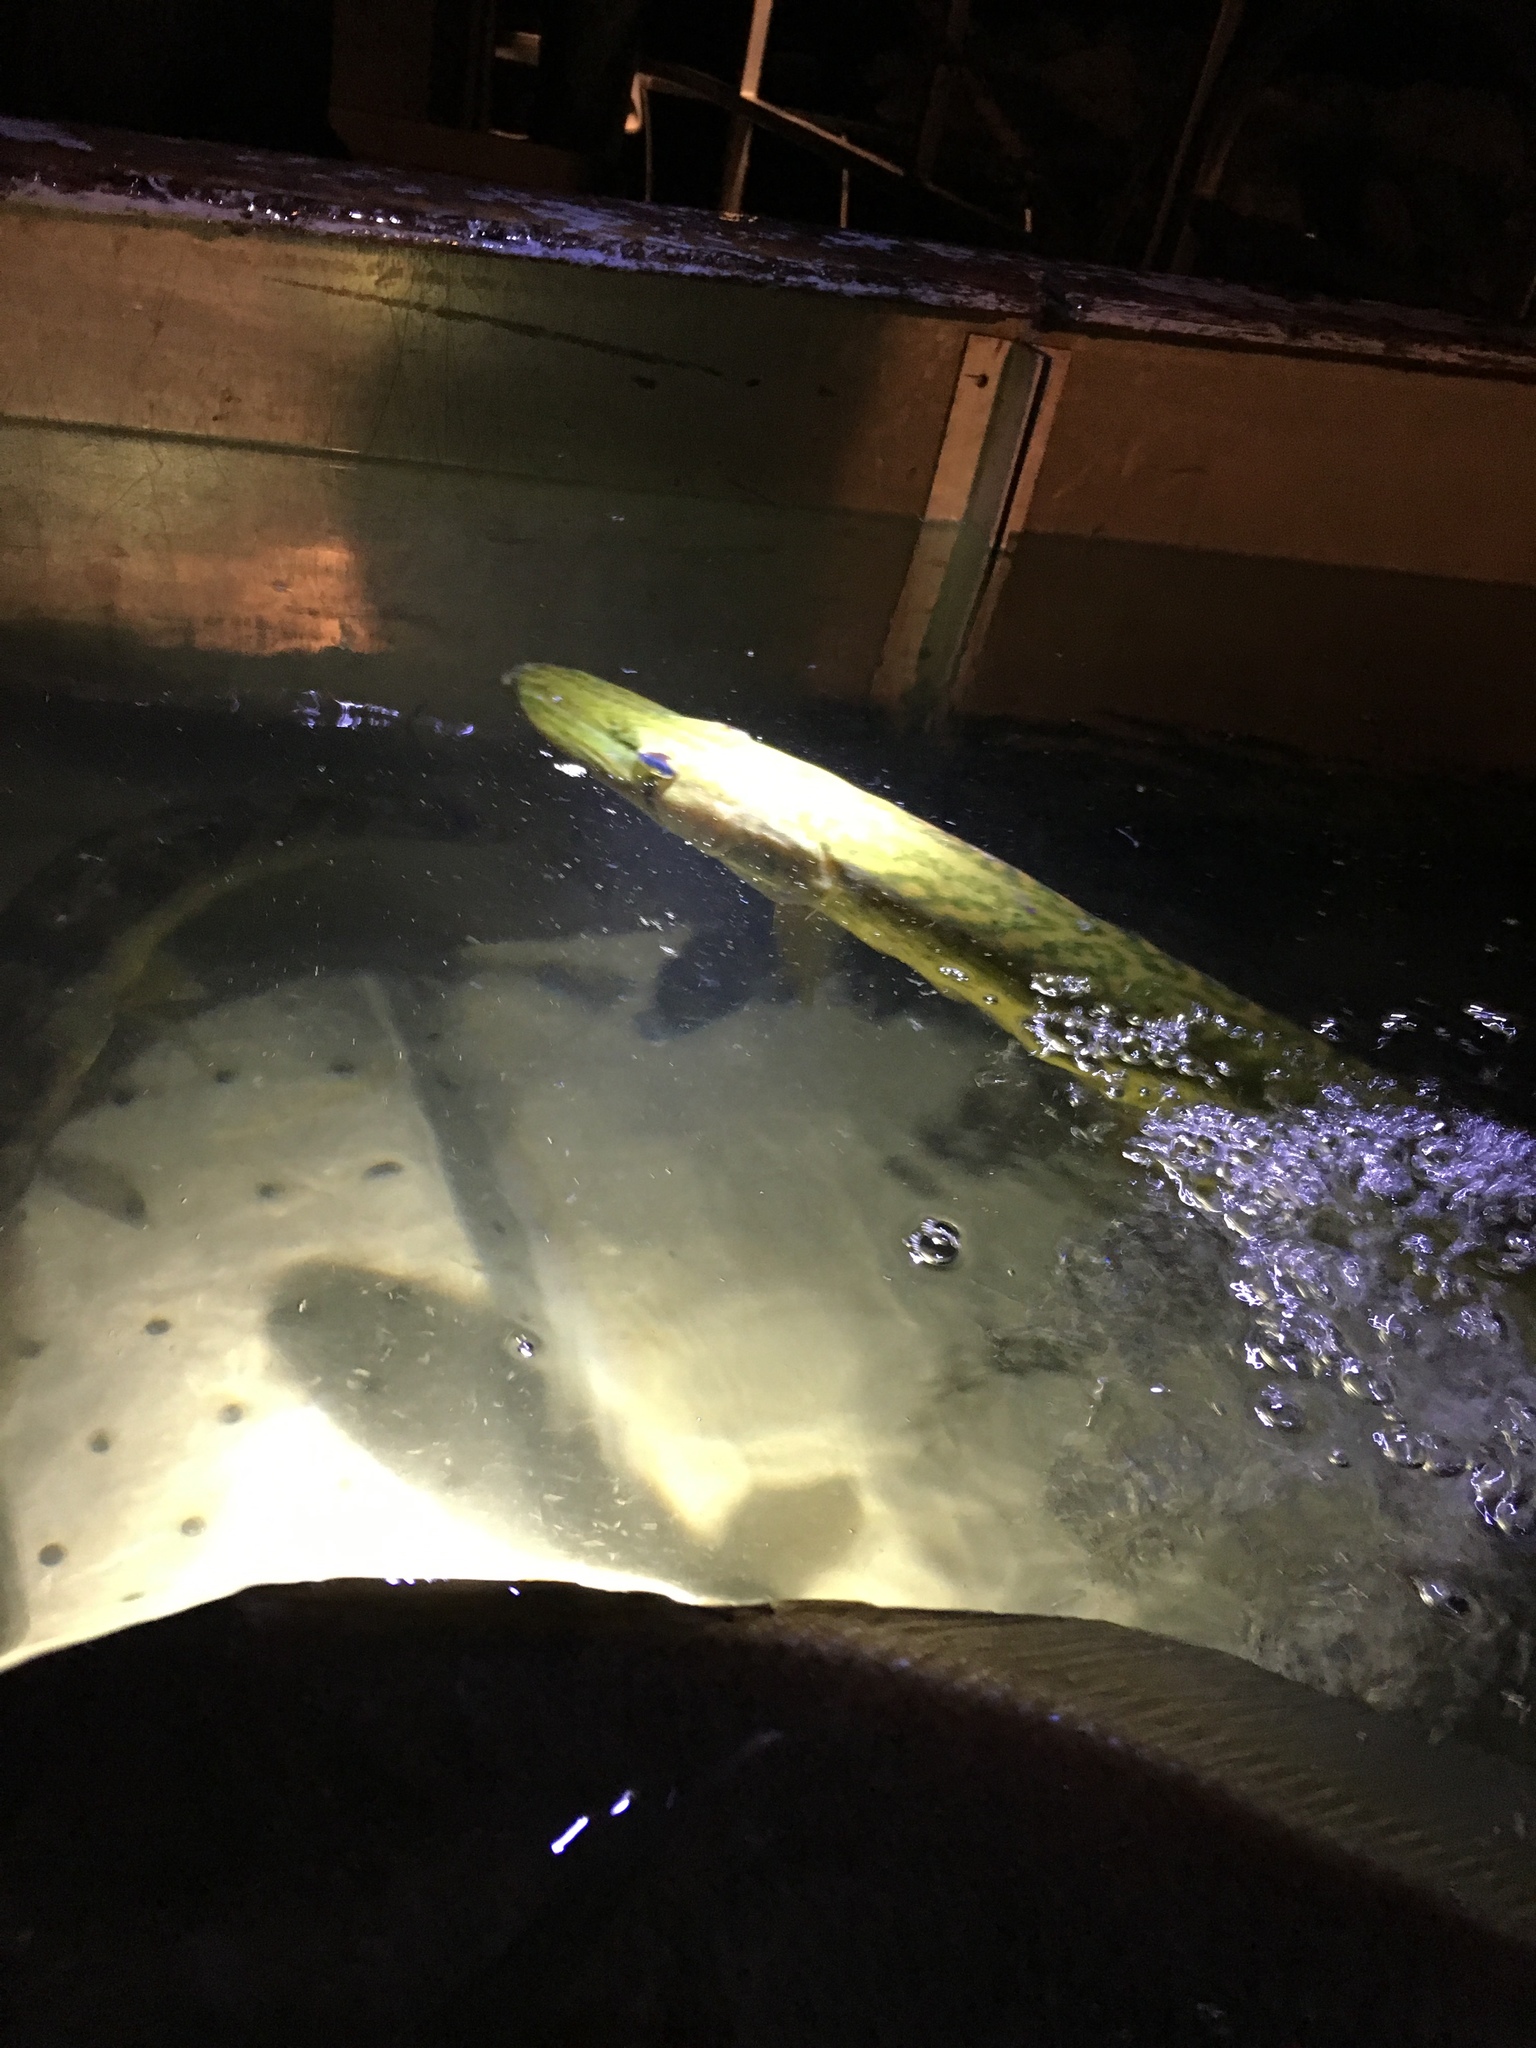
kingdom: Animalia
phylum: Chordata
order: Esociformes
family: Esocidae
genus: Esox
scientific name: Esox niger
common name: Chain pickerel
